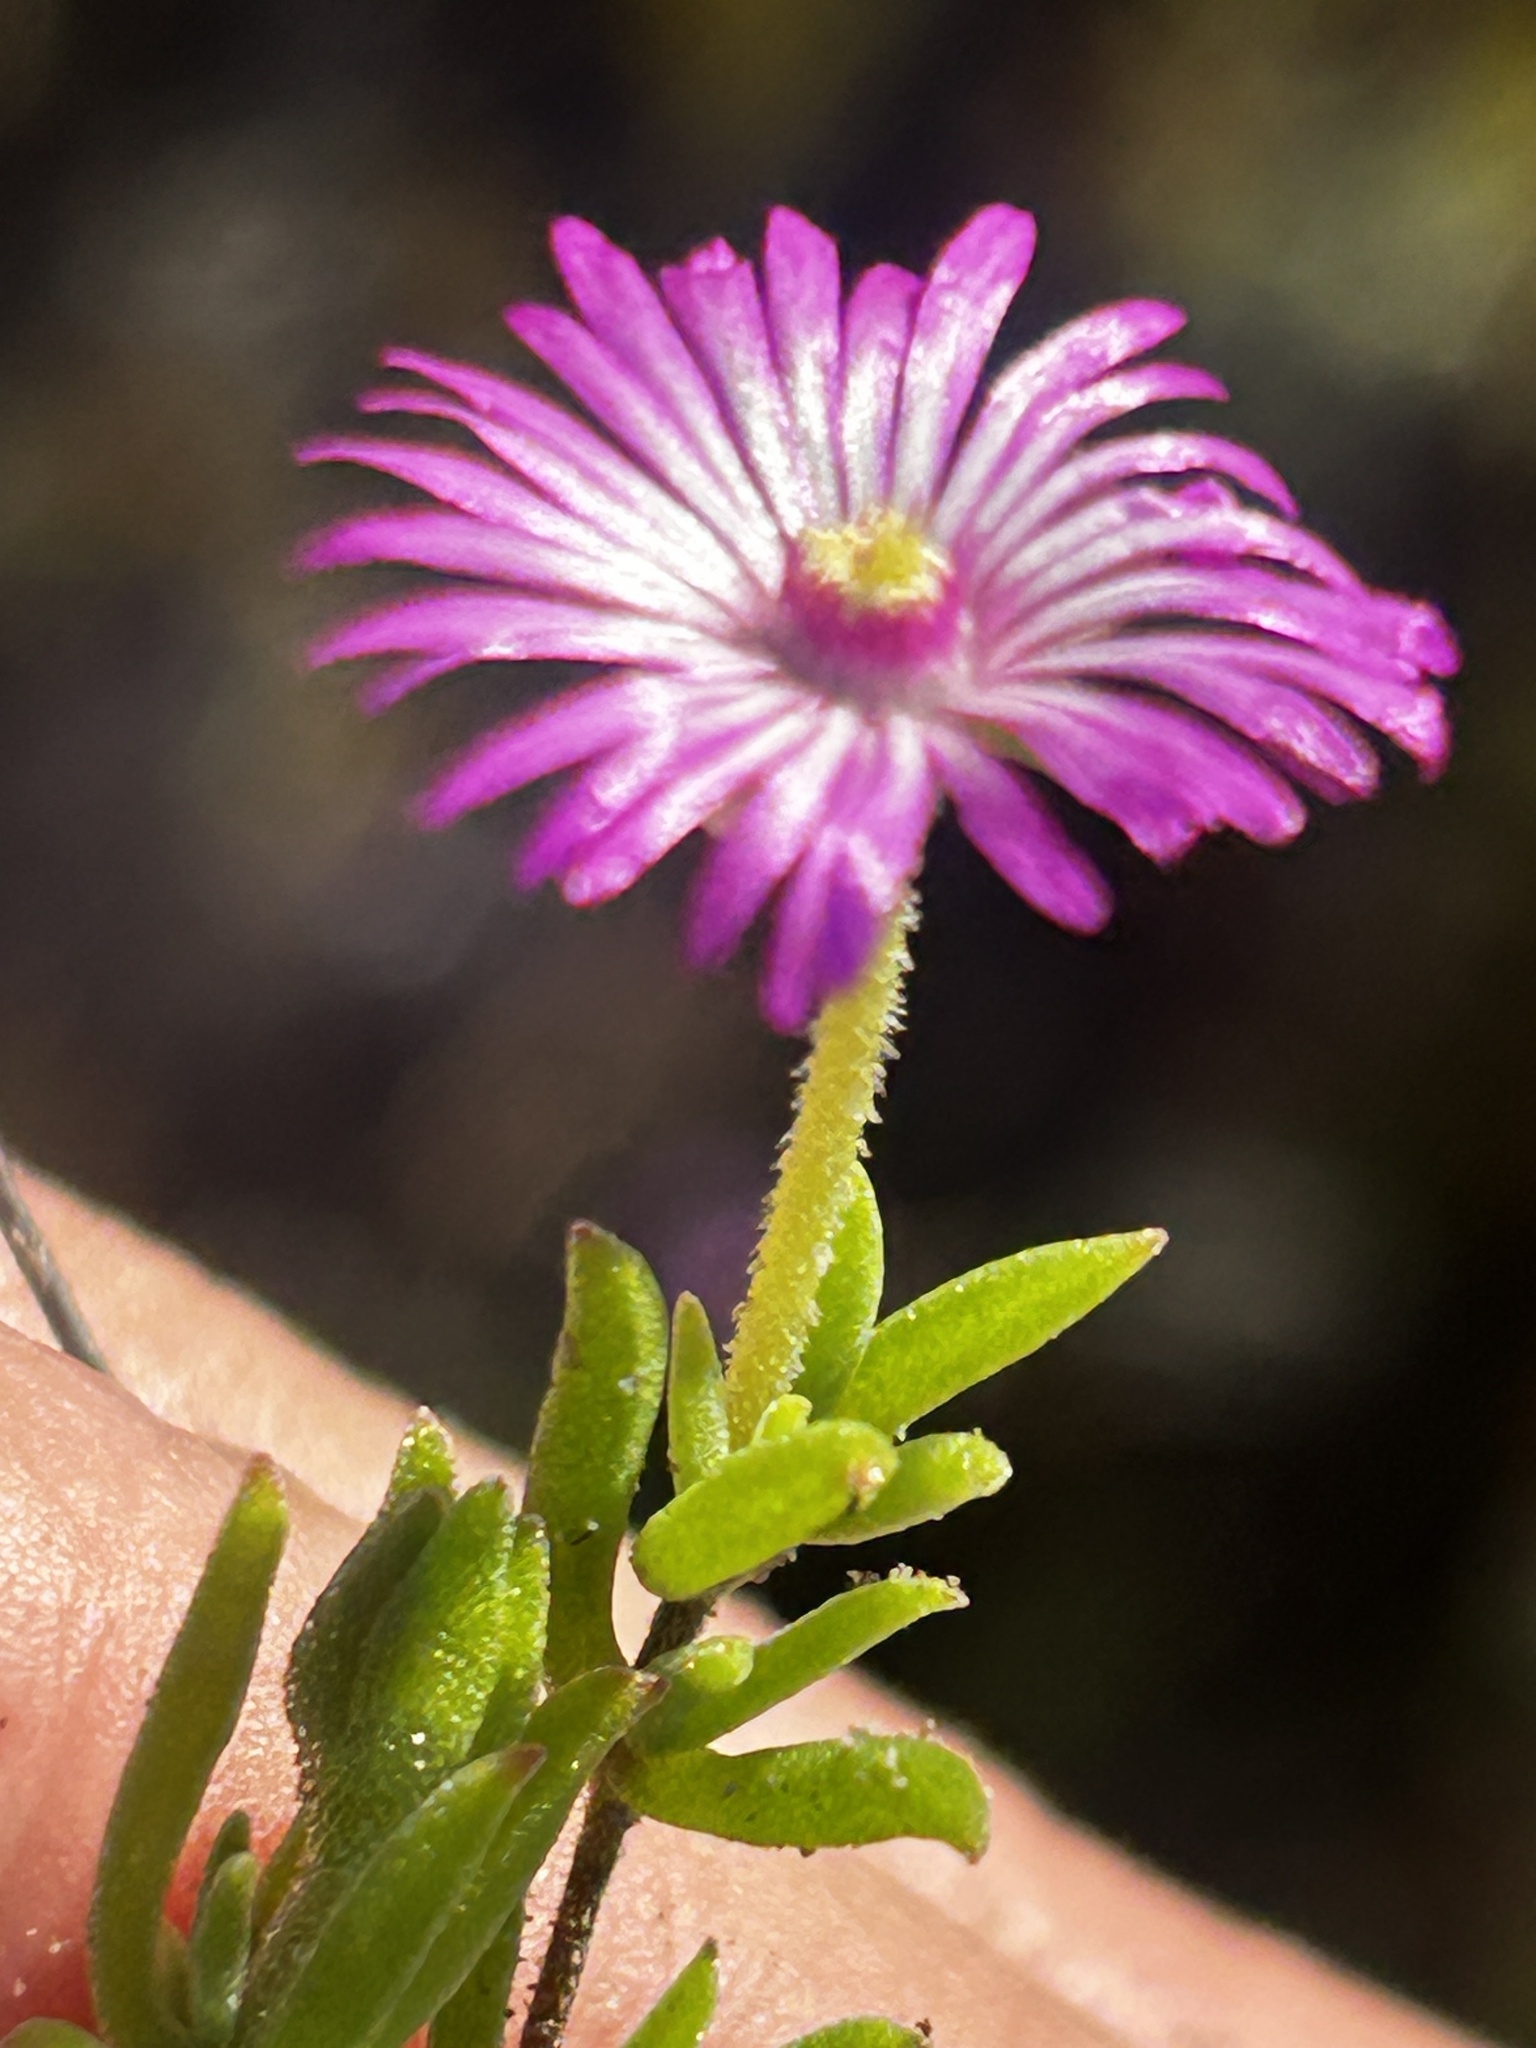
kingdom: Plantae
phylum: Tracheophyta
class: Magnoliopsida
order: Caryophyllales
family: Aizoaceae
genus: Drosanthemum
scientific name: Drosanthemum calcareum
